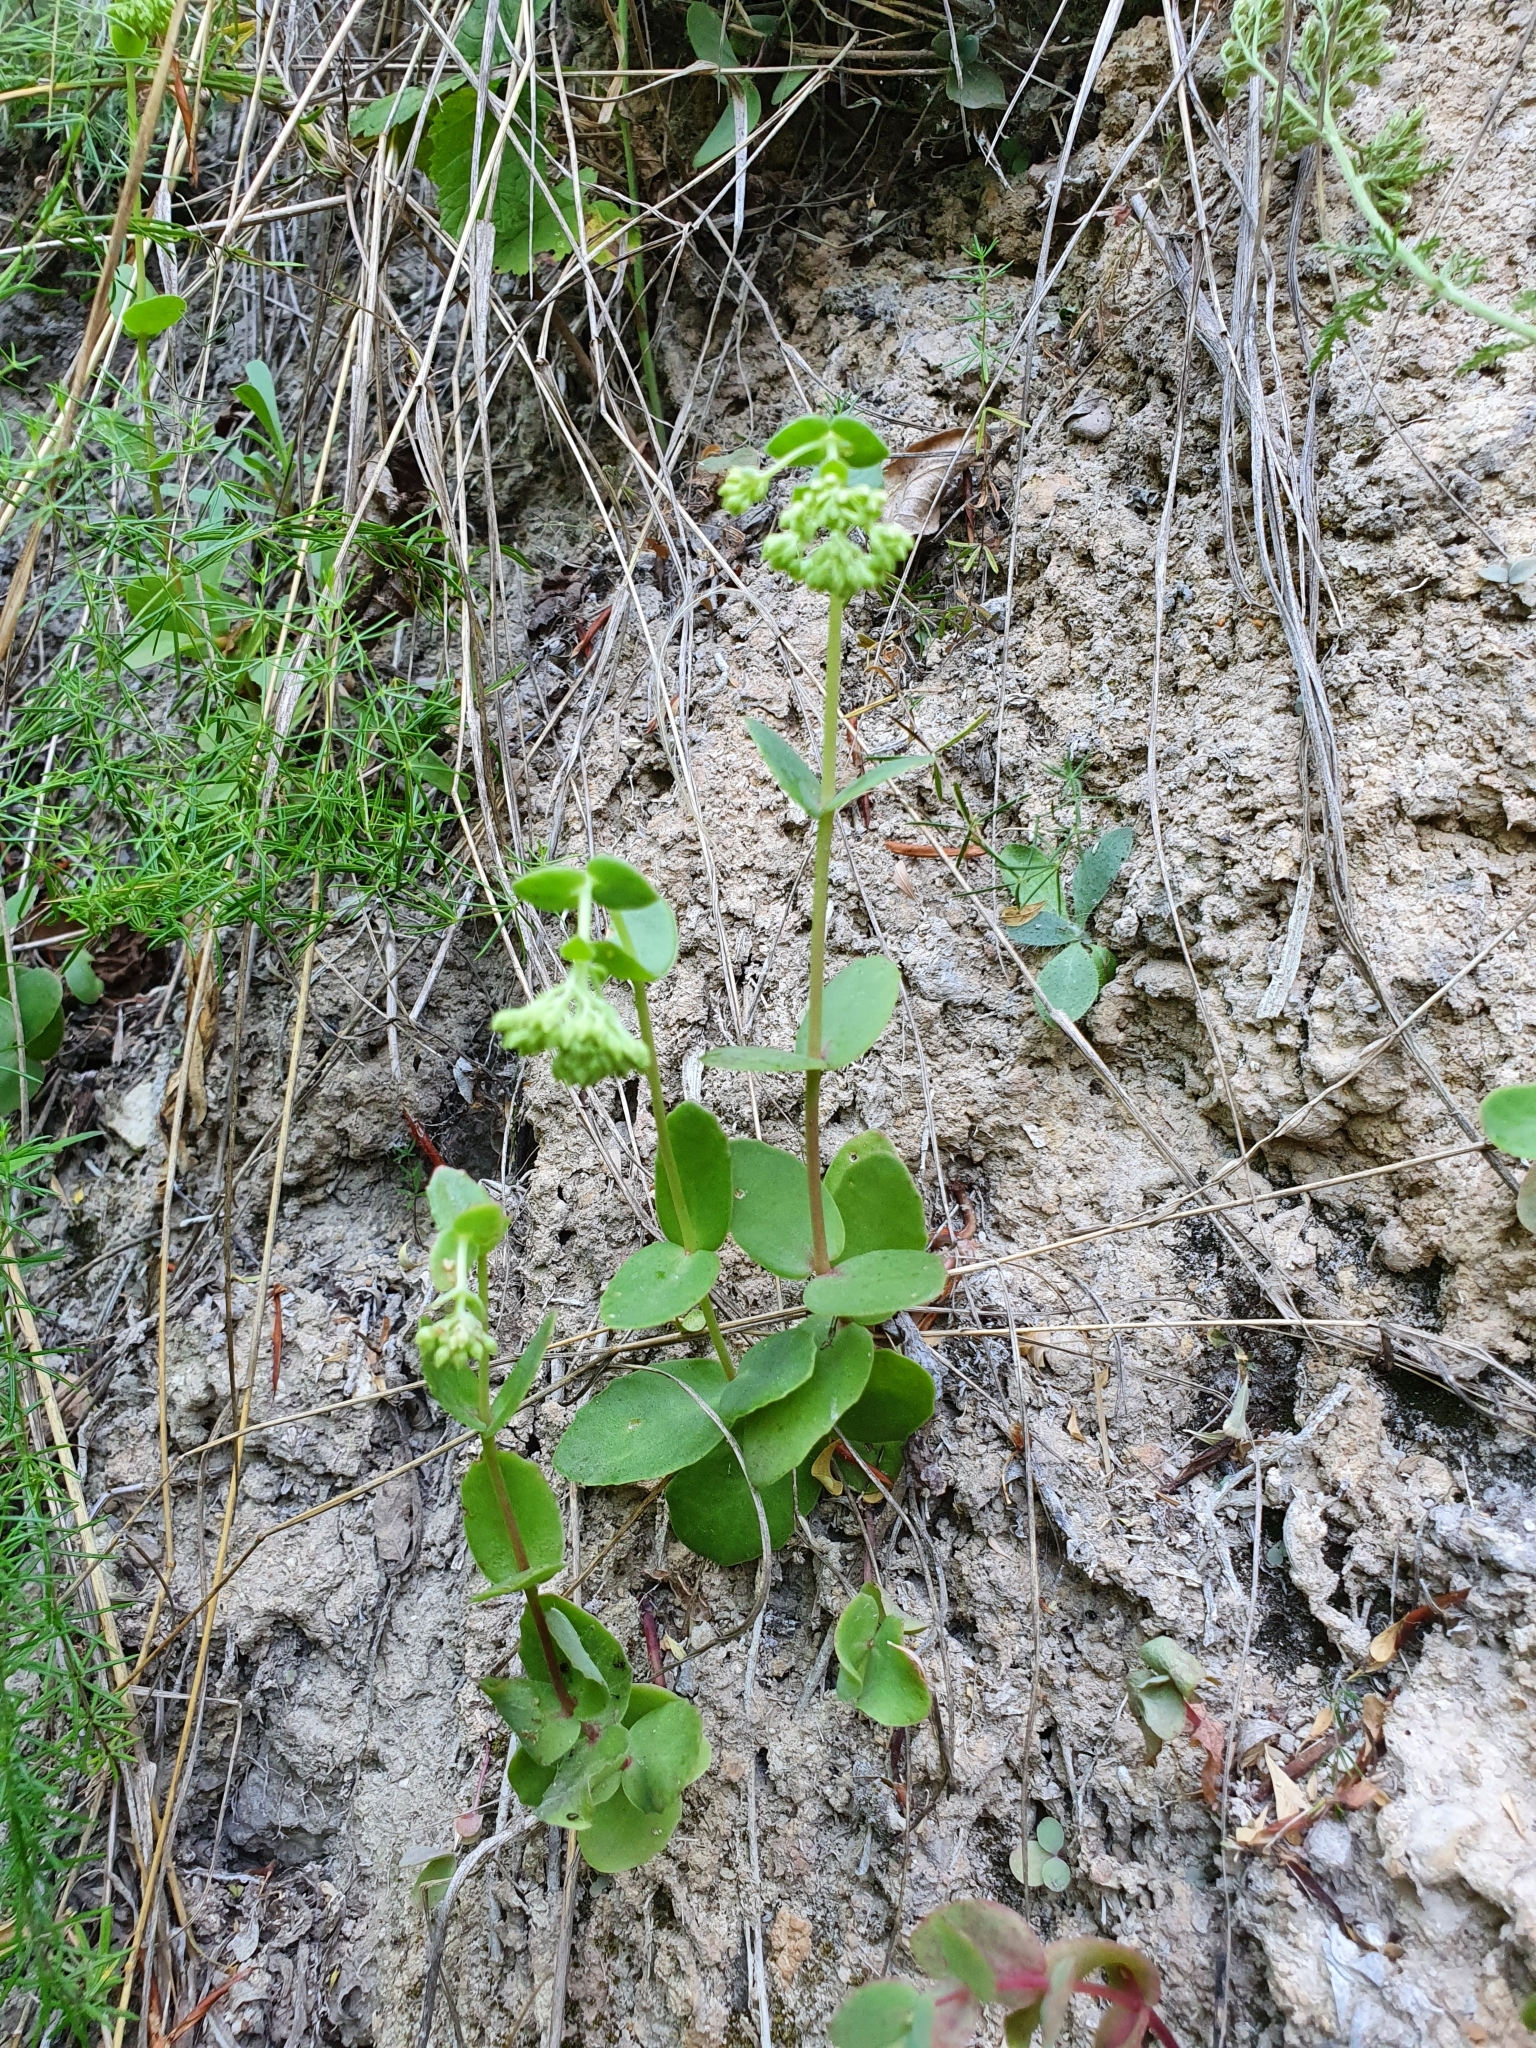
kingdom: Plantae
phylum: Tracheophyta
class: Magnoliopsida
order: Saxifragales
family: Crassulaceae
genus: Hylotelephium
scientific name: Hylotelephium maximum
